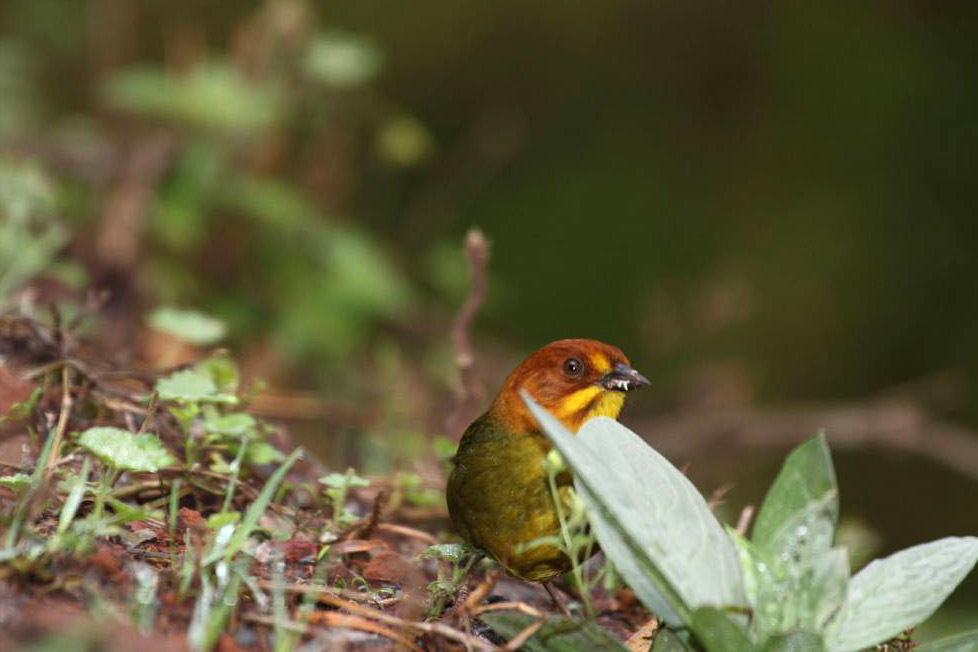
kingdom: Animalia
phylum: Chordata
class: Aves
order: Passeriformes
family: Passerellidae
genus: Atlapetes
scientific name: Atlapetes fulviceps
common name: Fulvous-headed brushfinch
